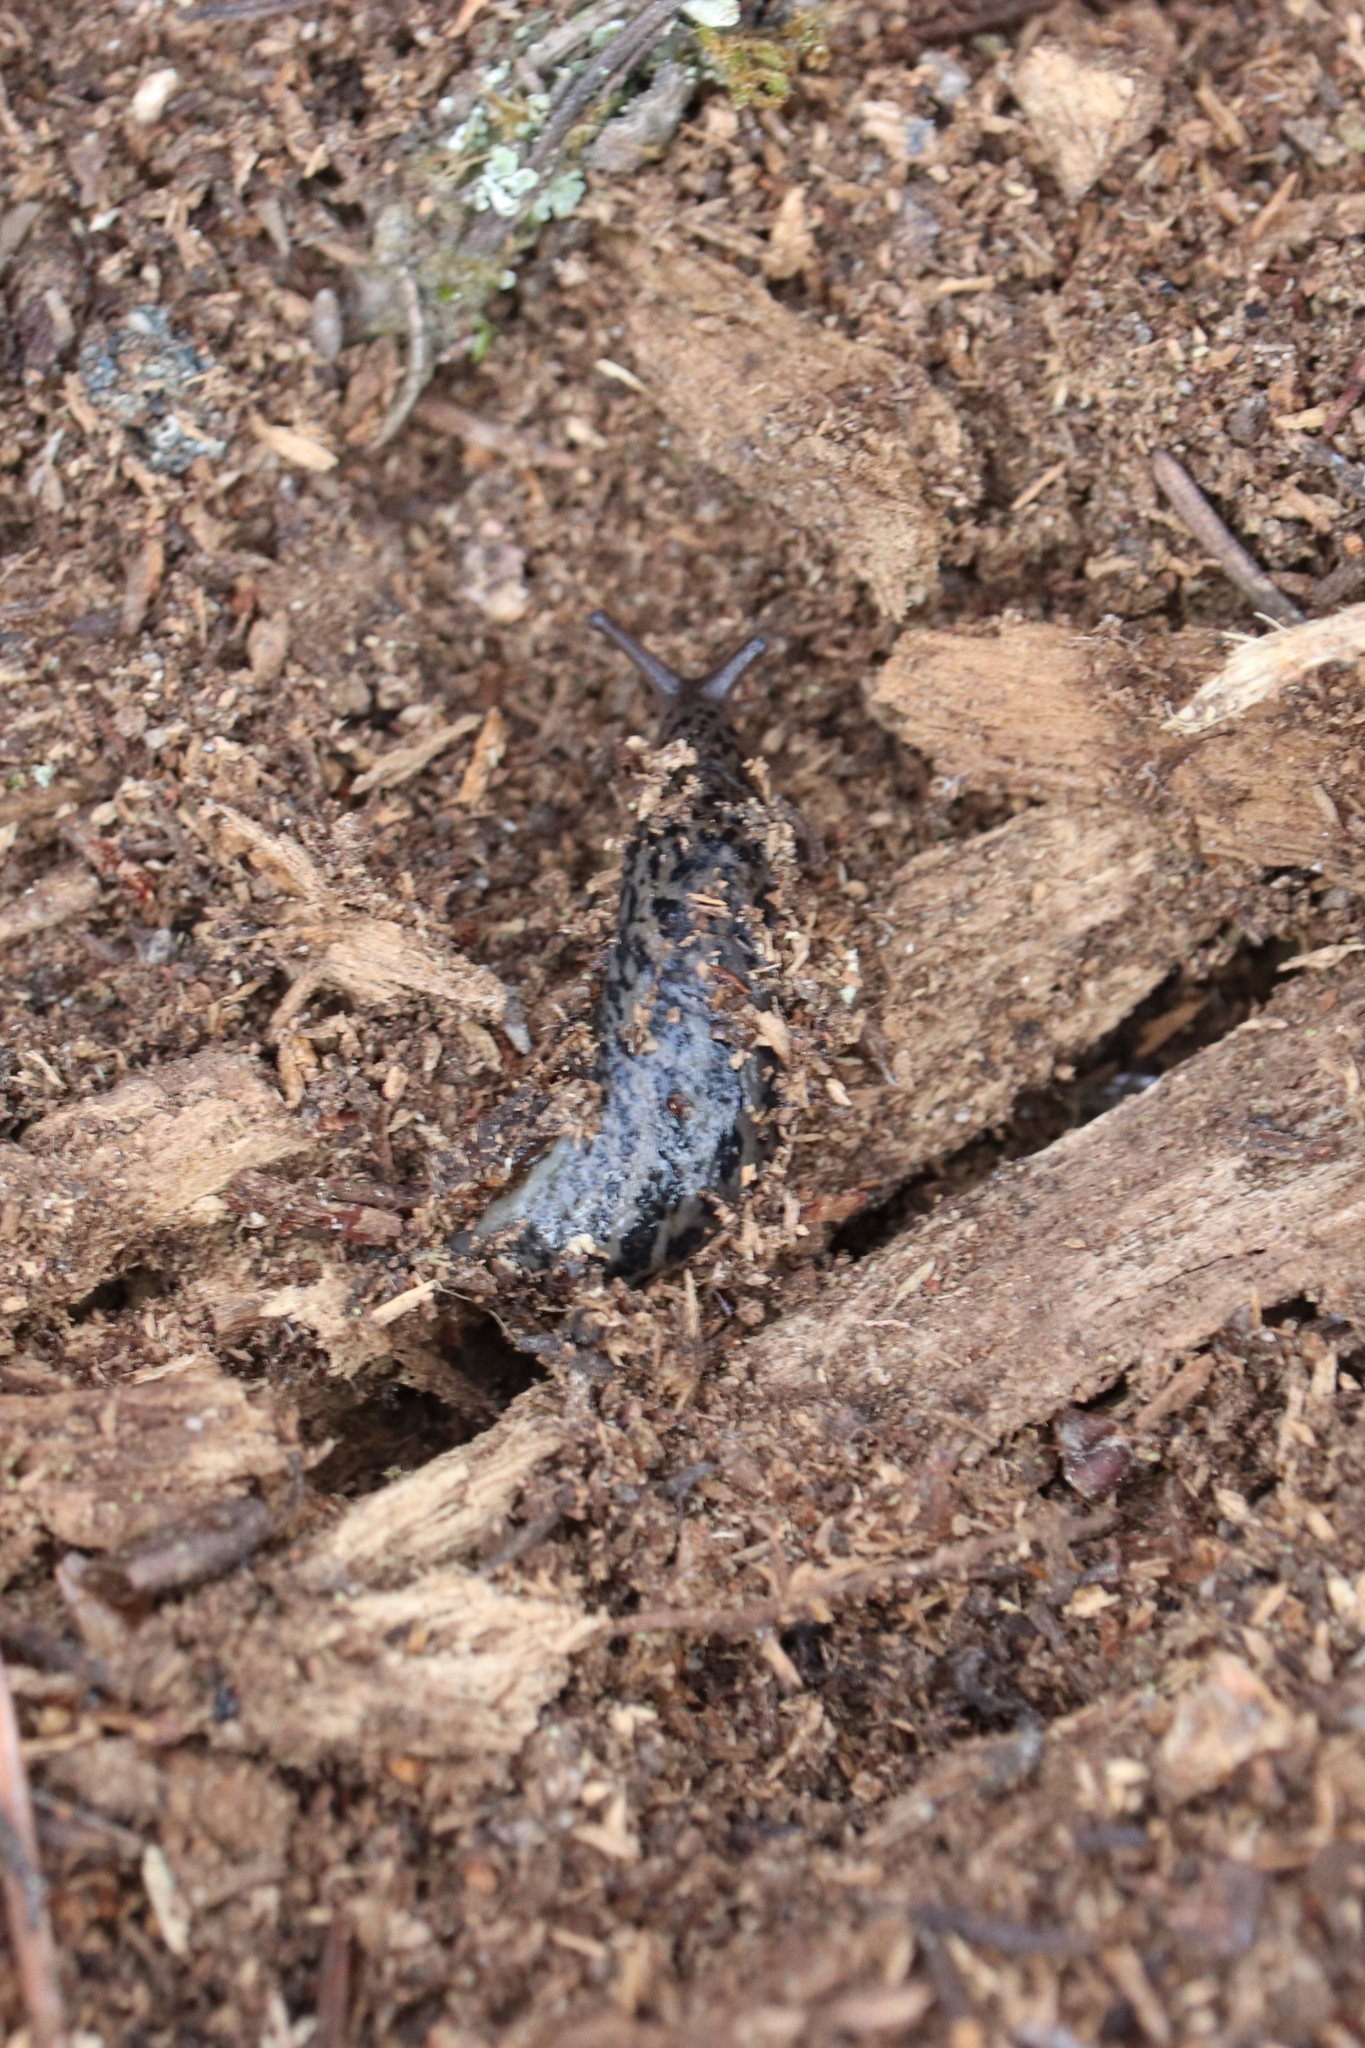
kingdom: Animalia
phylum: Mollusca
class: Gastropoda
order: Stylommatophora
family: Limacidae
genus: Limax
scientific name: Limax maximus
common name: Great grey slug
